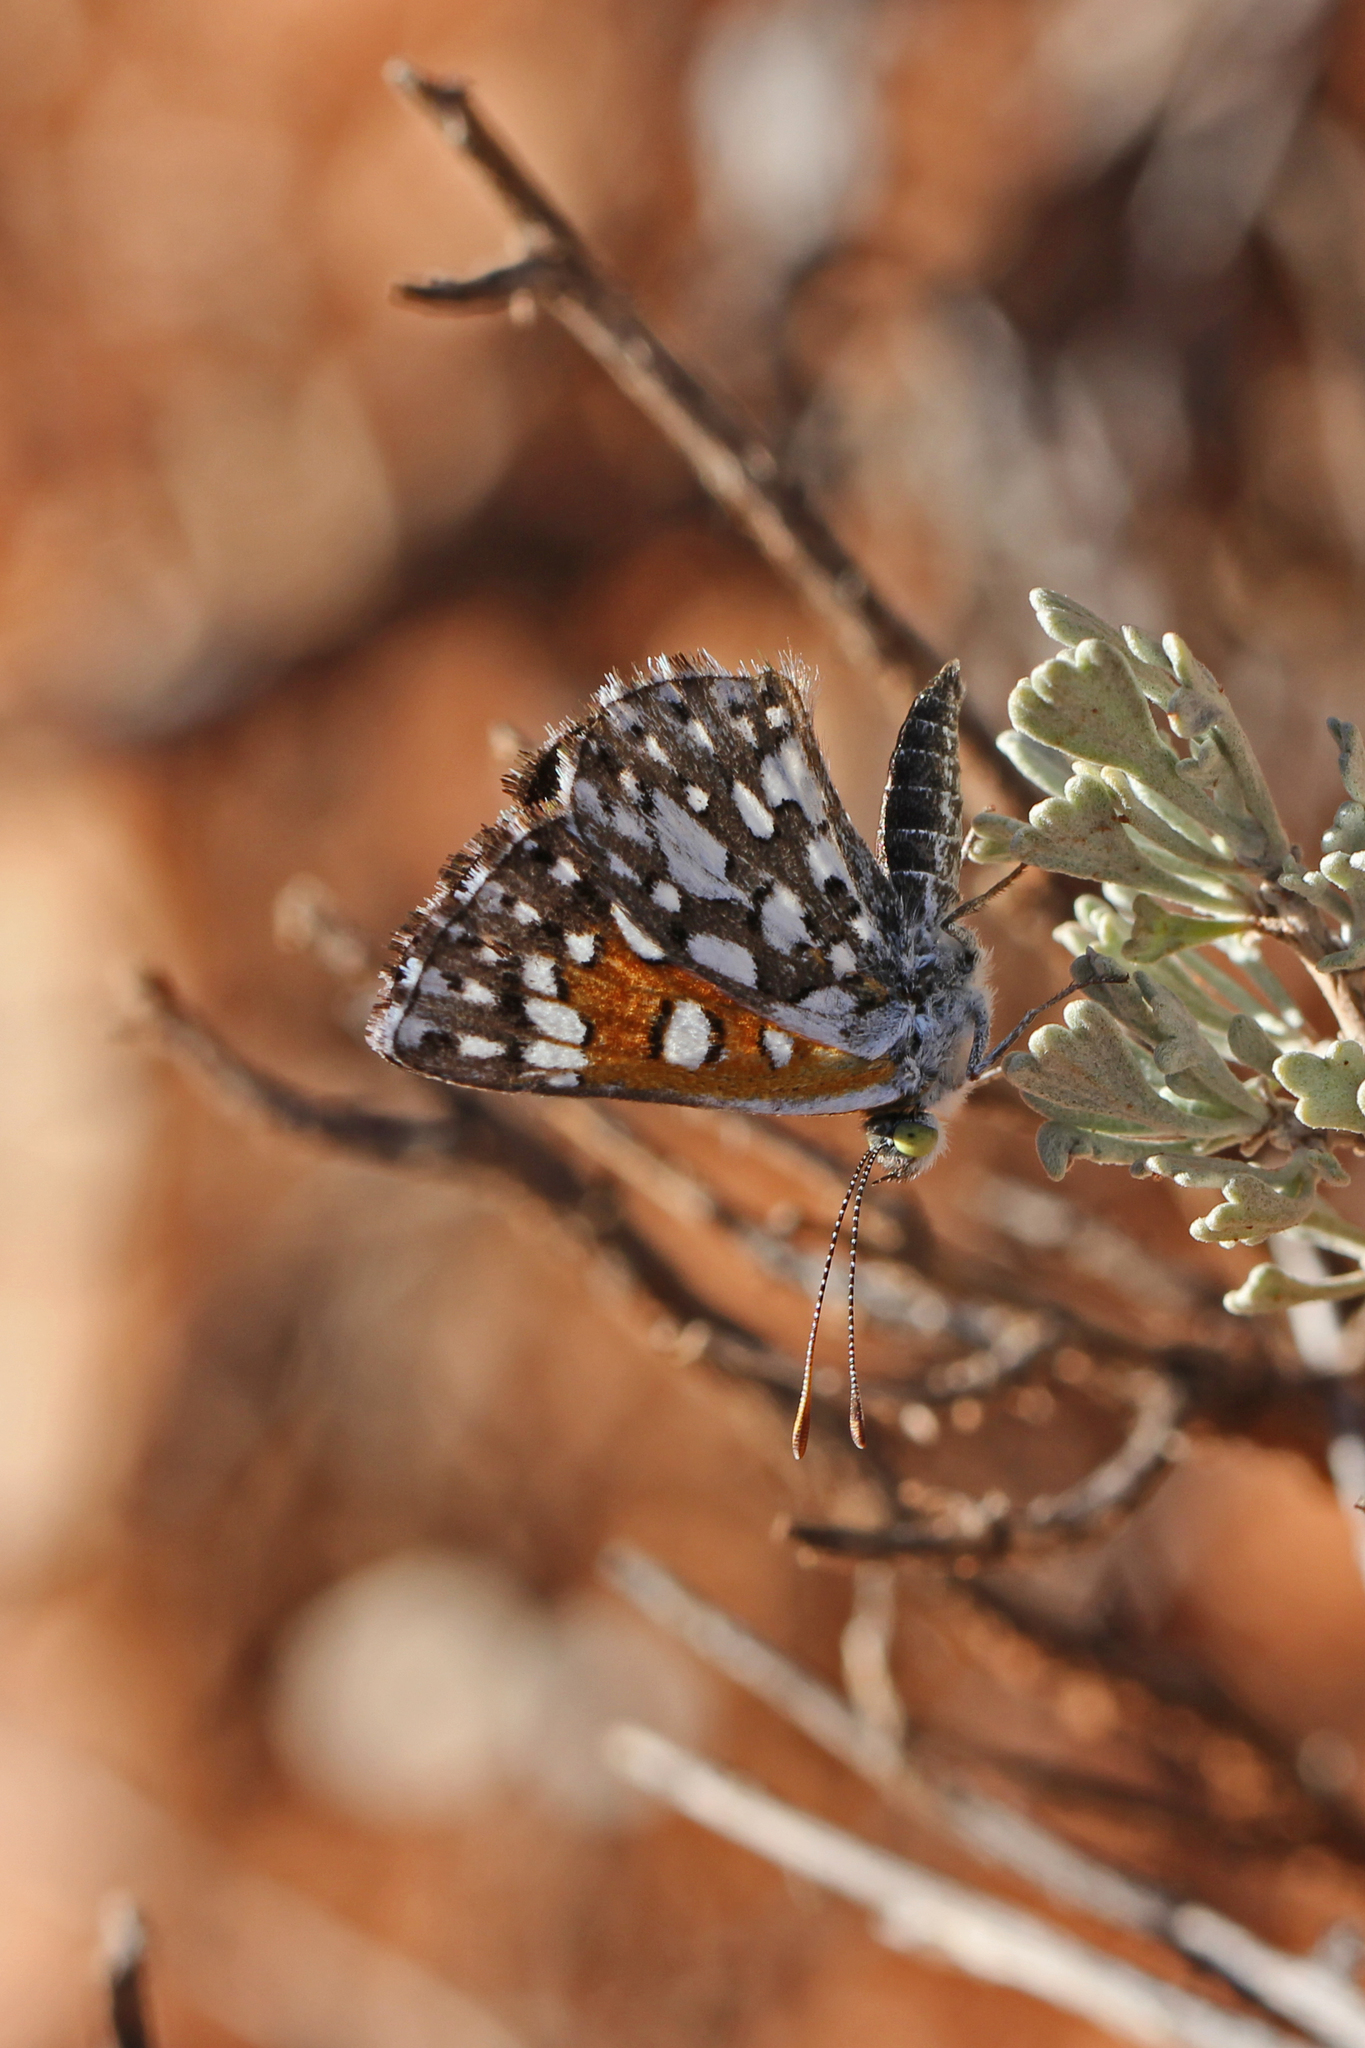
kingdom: Animalia
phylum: Arthropoda
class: Insecta
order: Lepidoptera
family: Riodinidae
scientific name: Riodinidae
